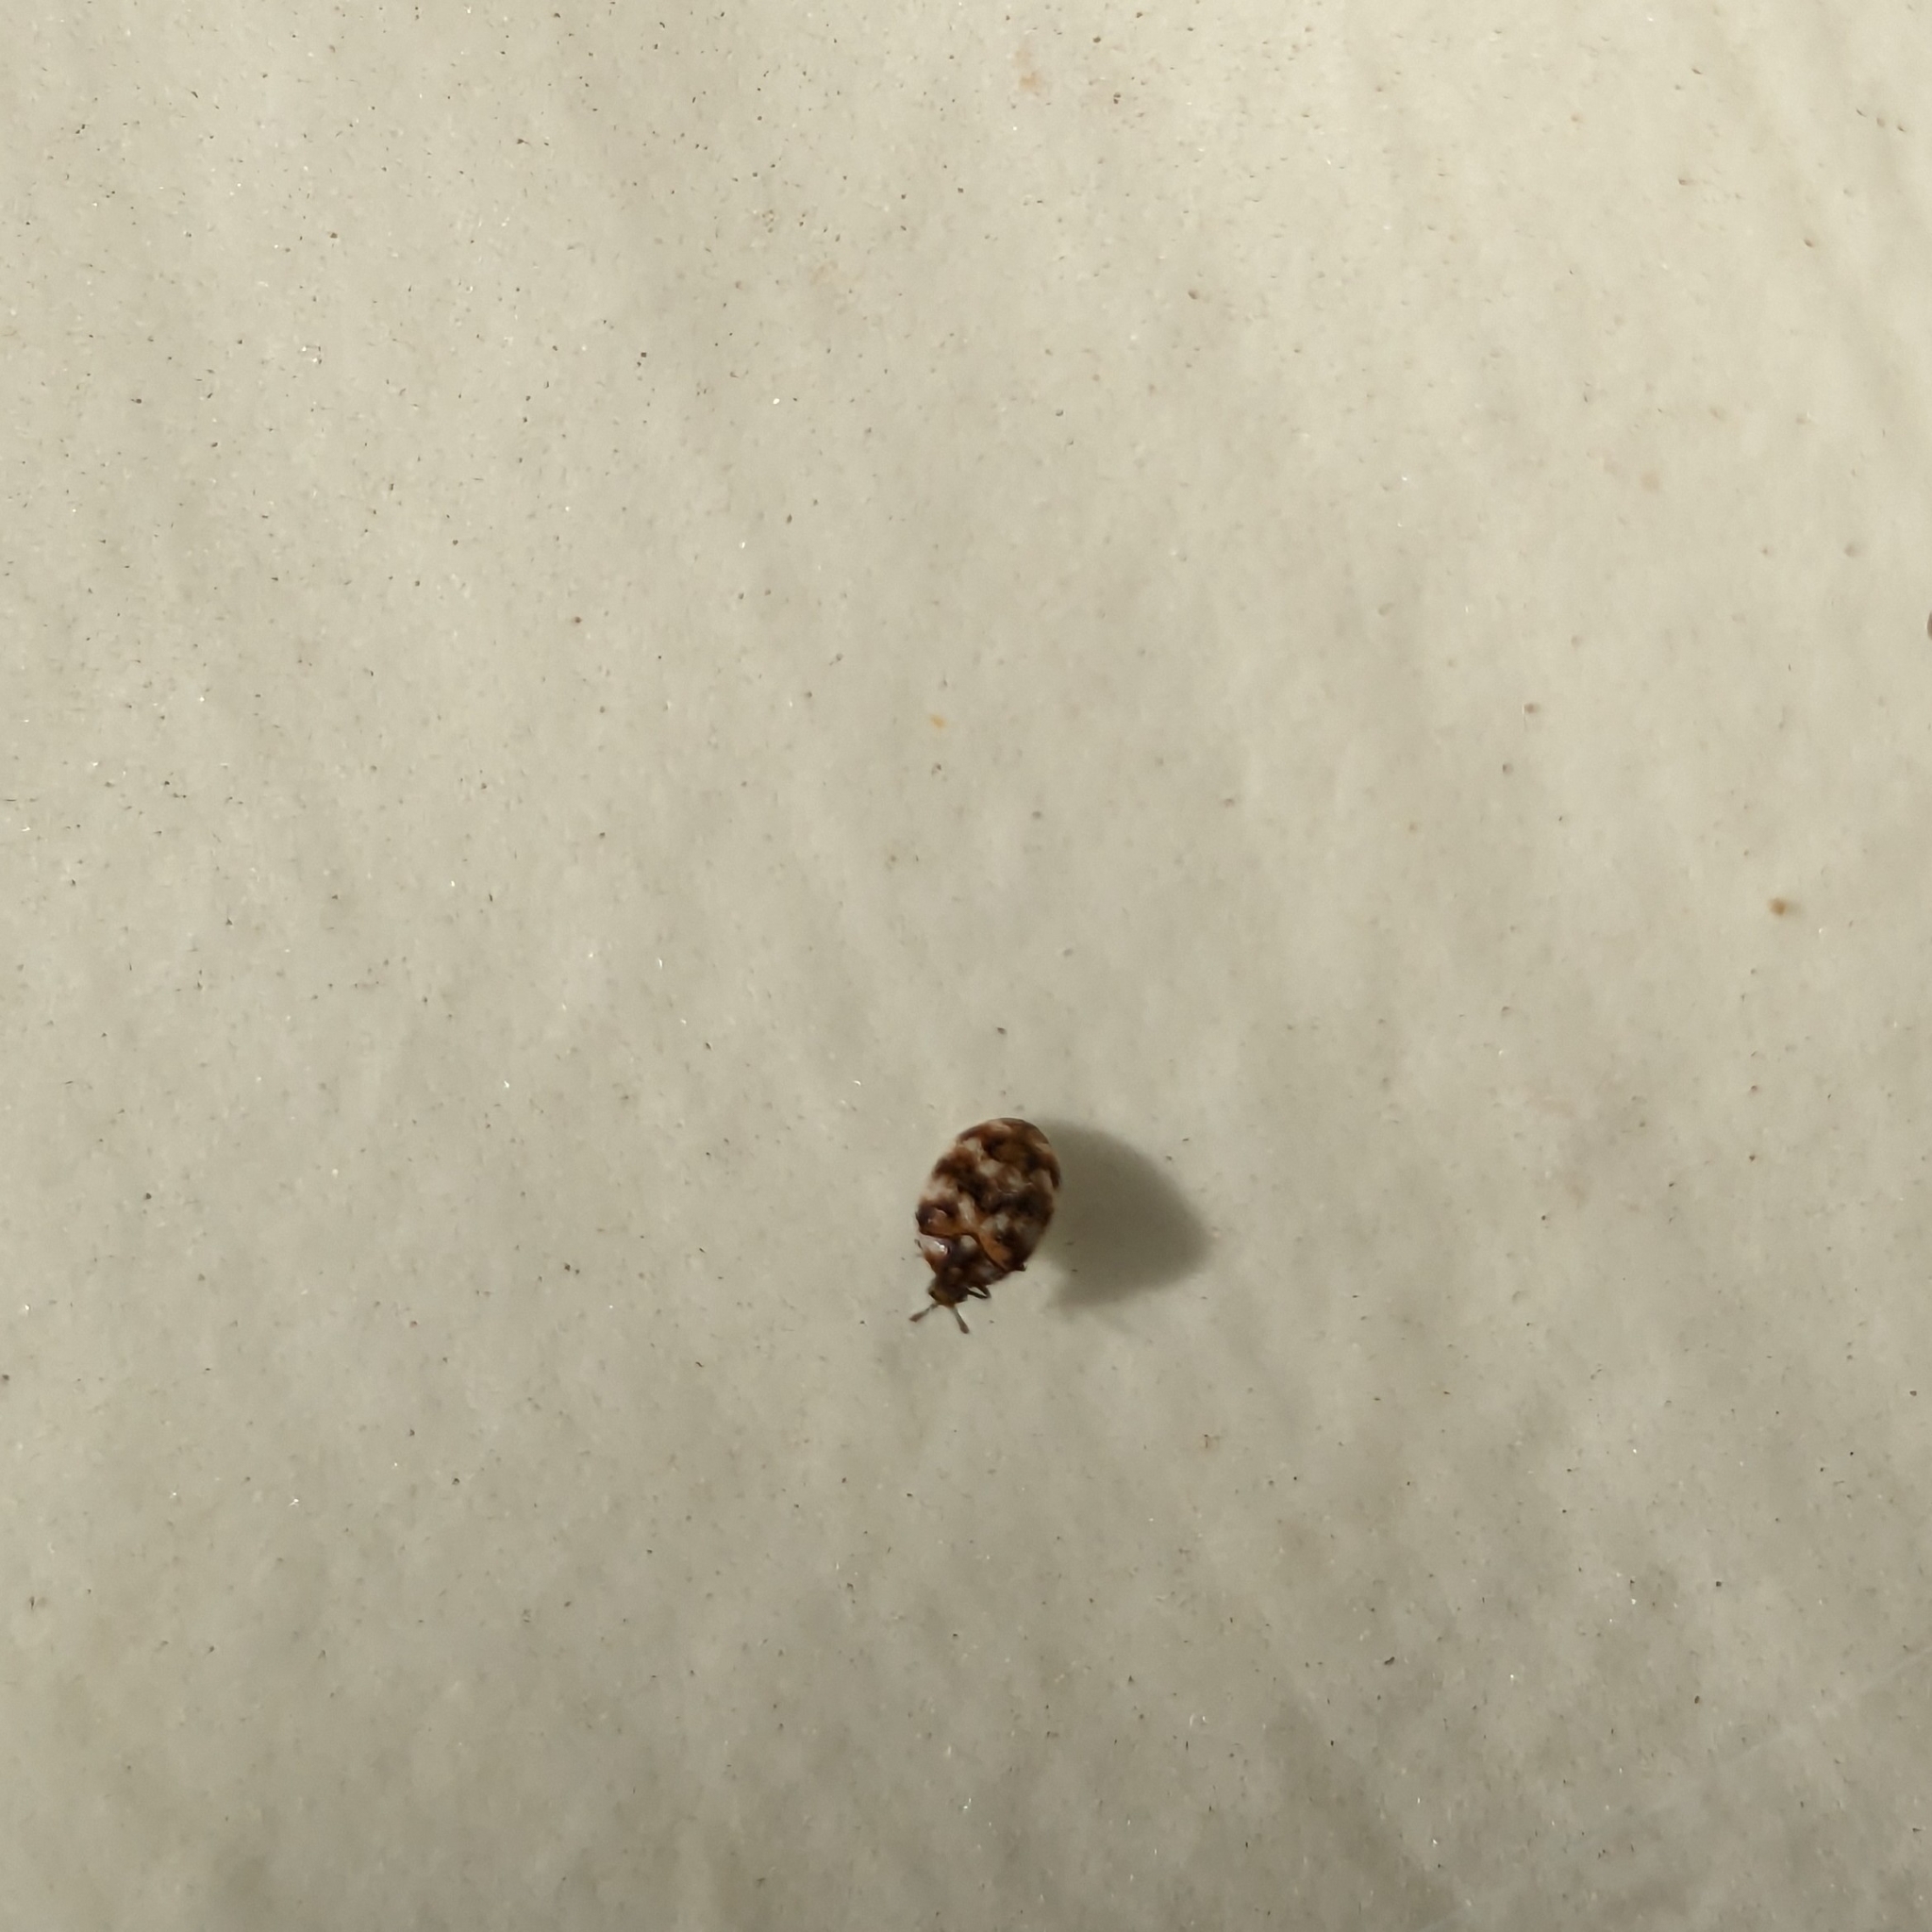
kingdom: Animalia
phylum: Arthropoda
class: Insecta
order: Coleoptera
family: Dermestidae
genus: Anthrenus
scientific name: Anthrenus verbasci
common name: Varied carpet beetle
